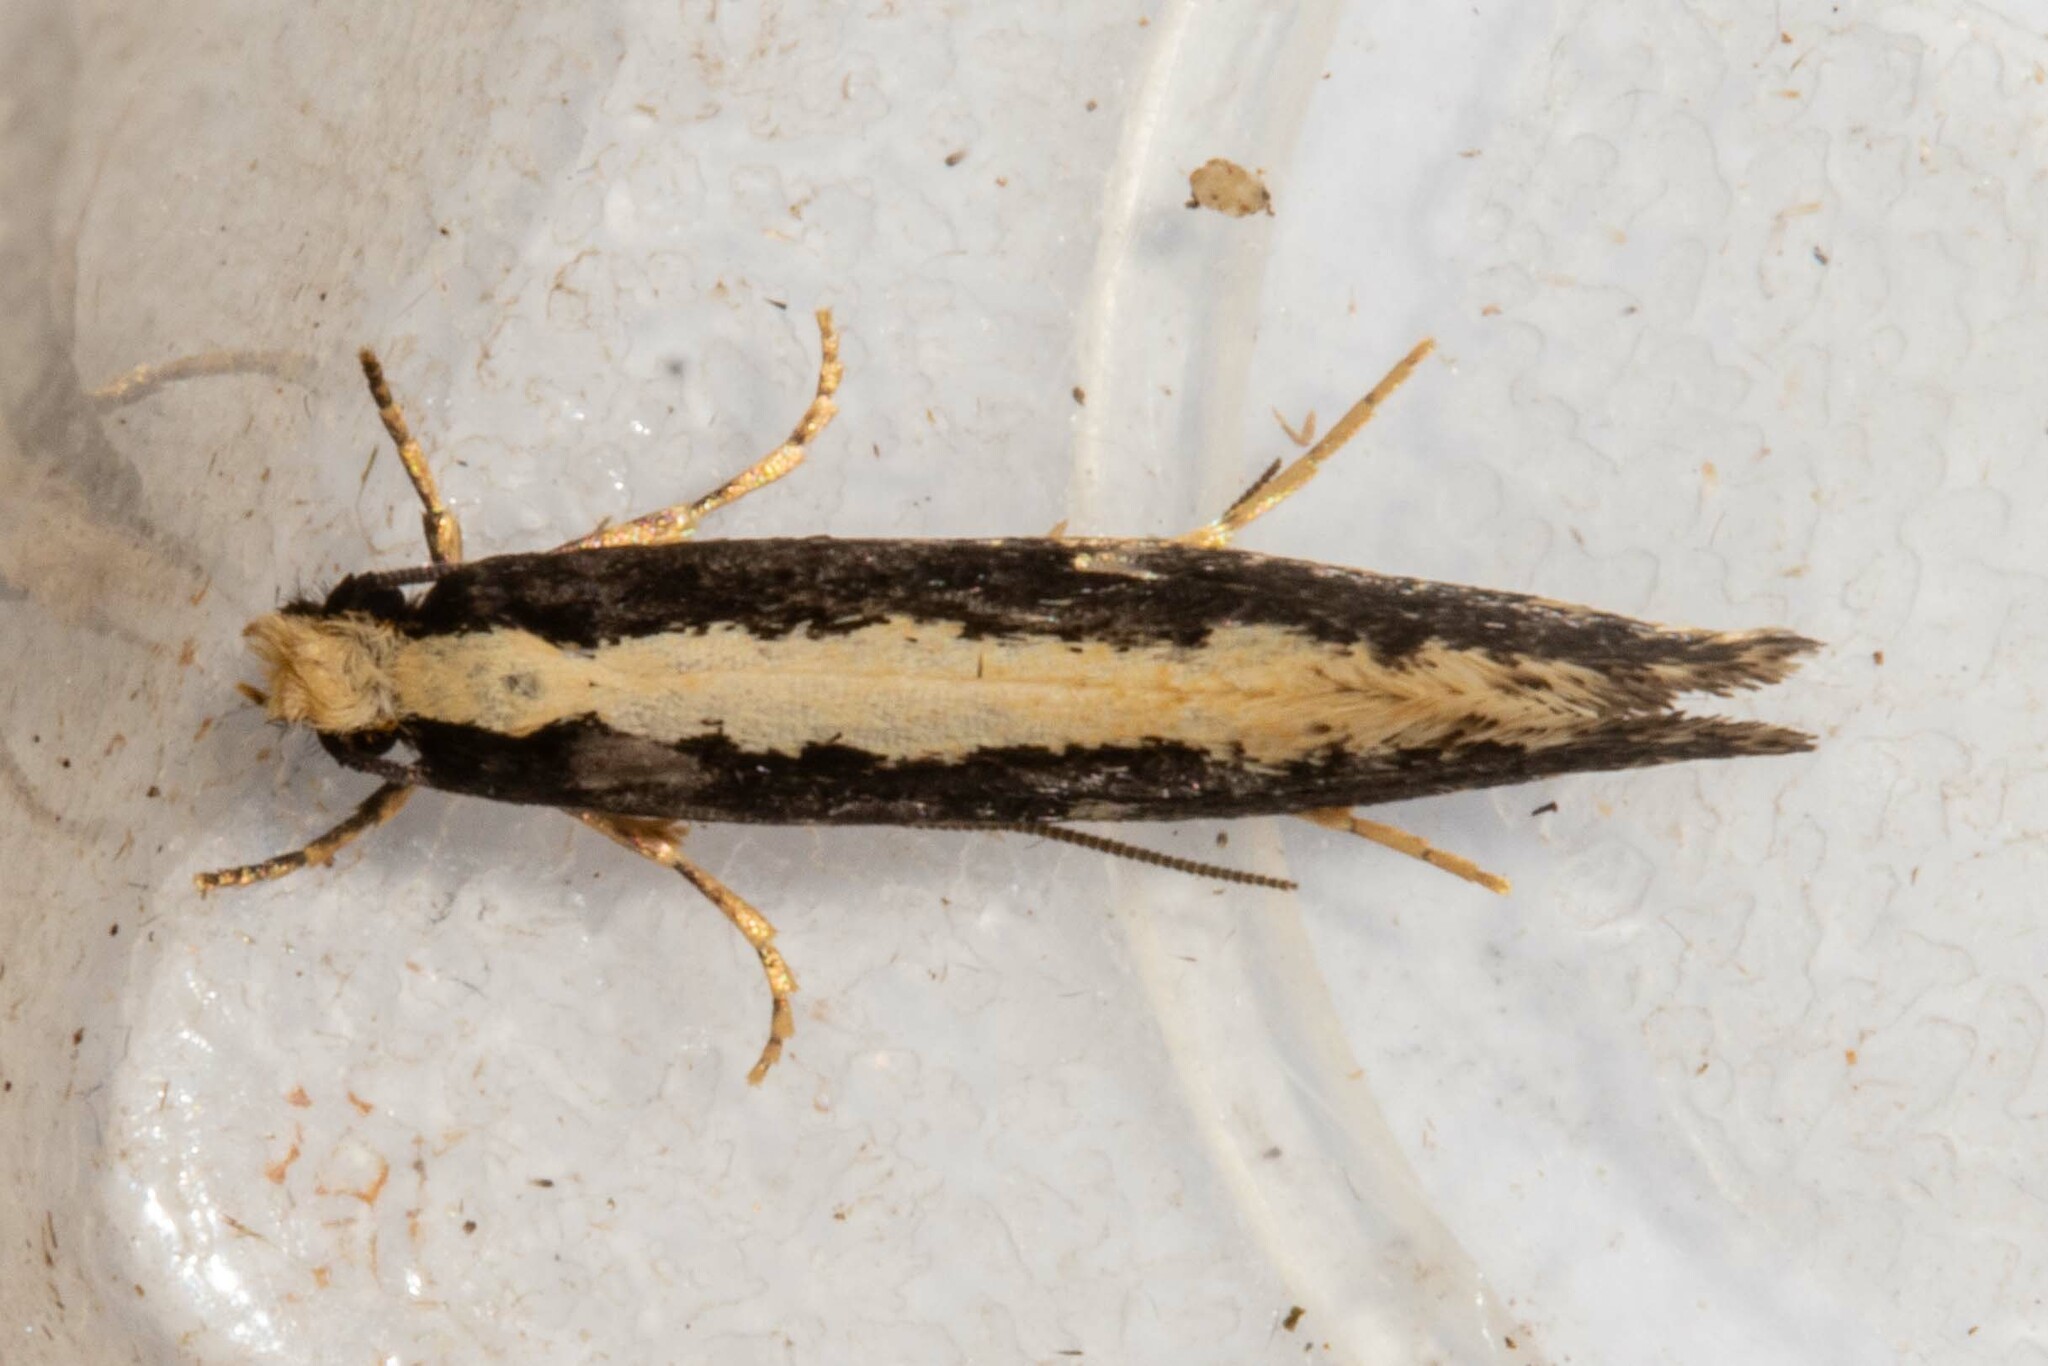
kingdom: Animalia
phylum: Arthropoda
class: Insecta
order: Lepidoptera
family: Tineidae
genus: Monopis
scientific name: Monopis ethelella
